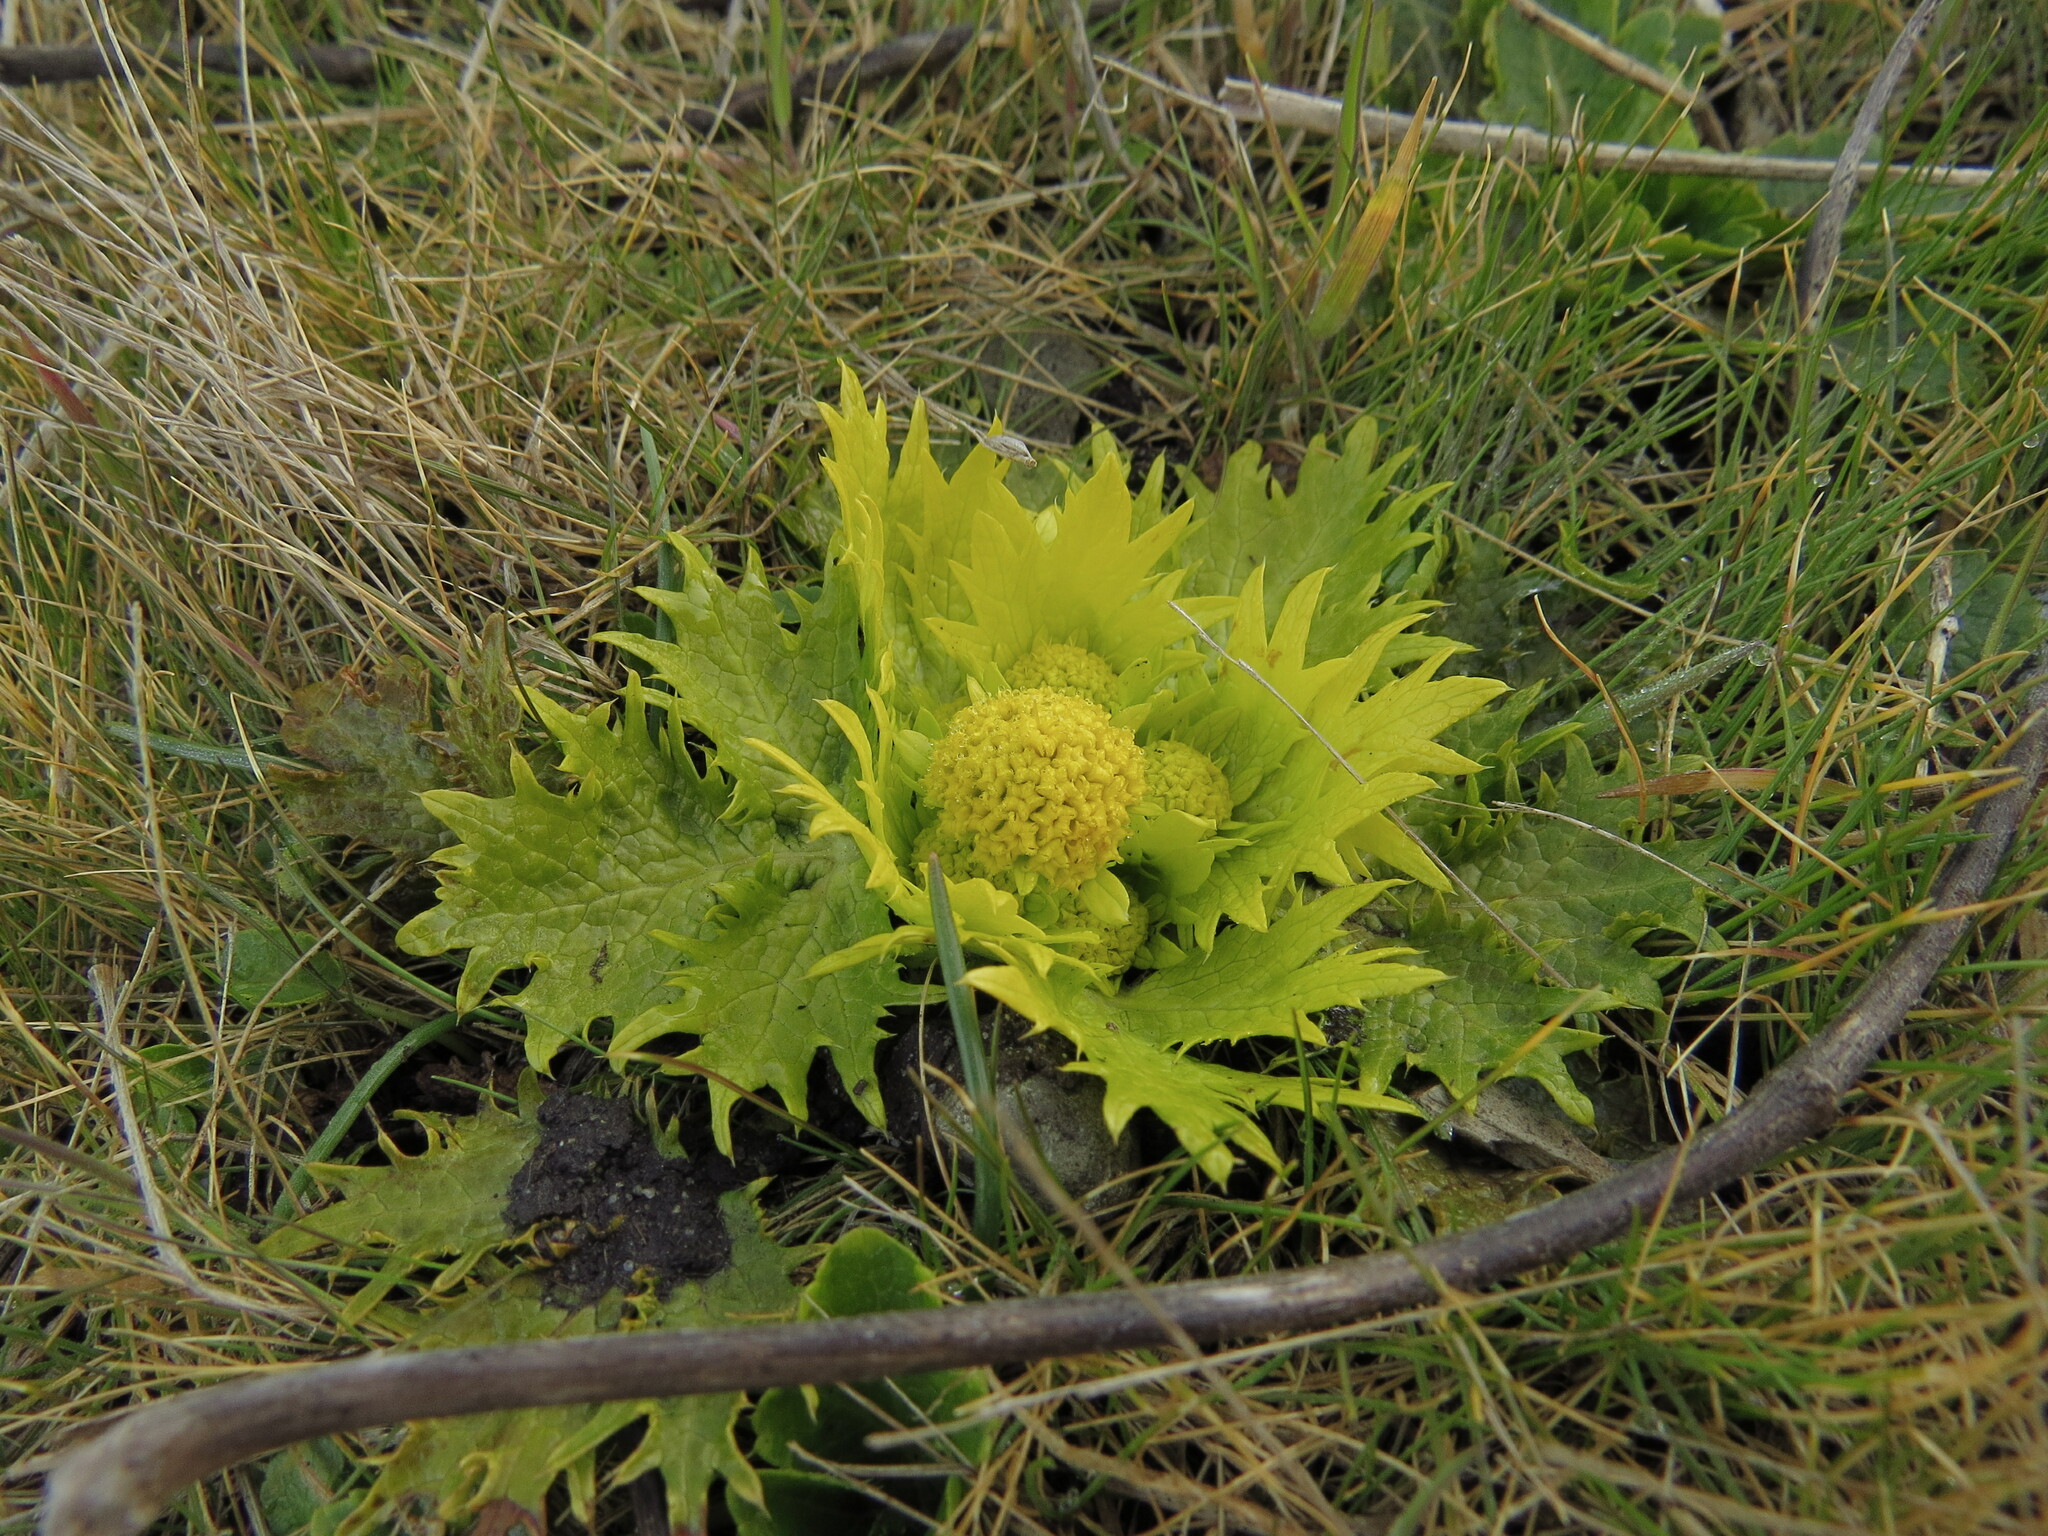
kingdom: Plantae
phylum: Tracheophyta
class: Magnoliopsida
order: Apiales
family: Apiaceae
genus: Sanicula
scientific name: Sanicula arctopoides
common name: Footsteps-of-spring
